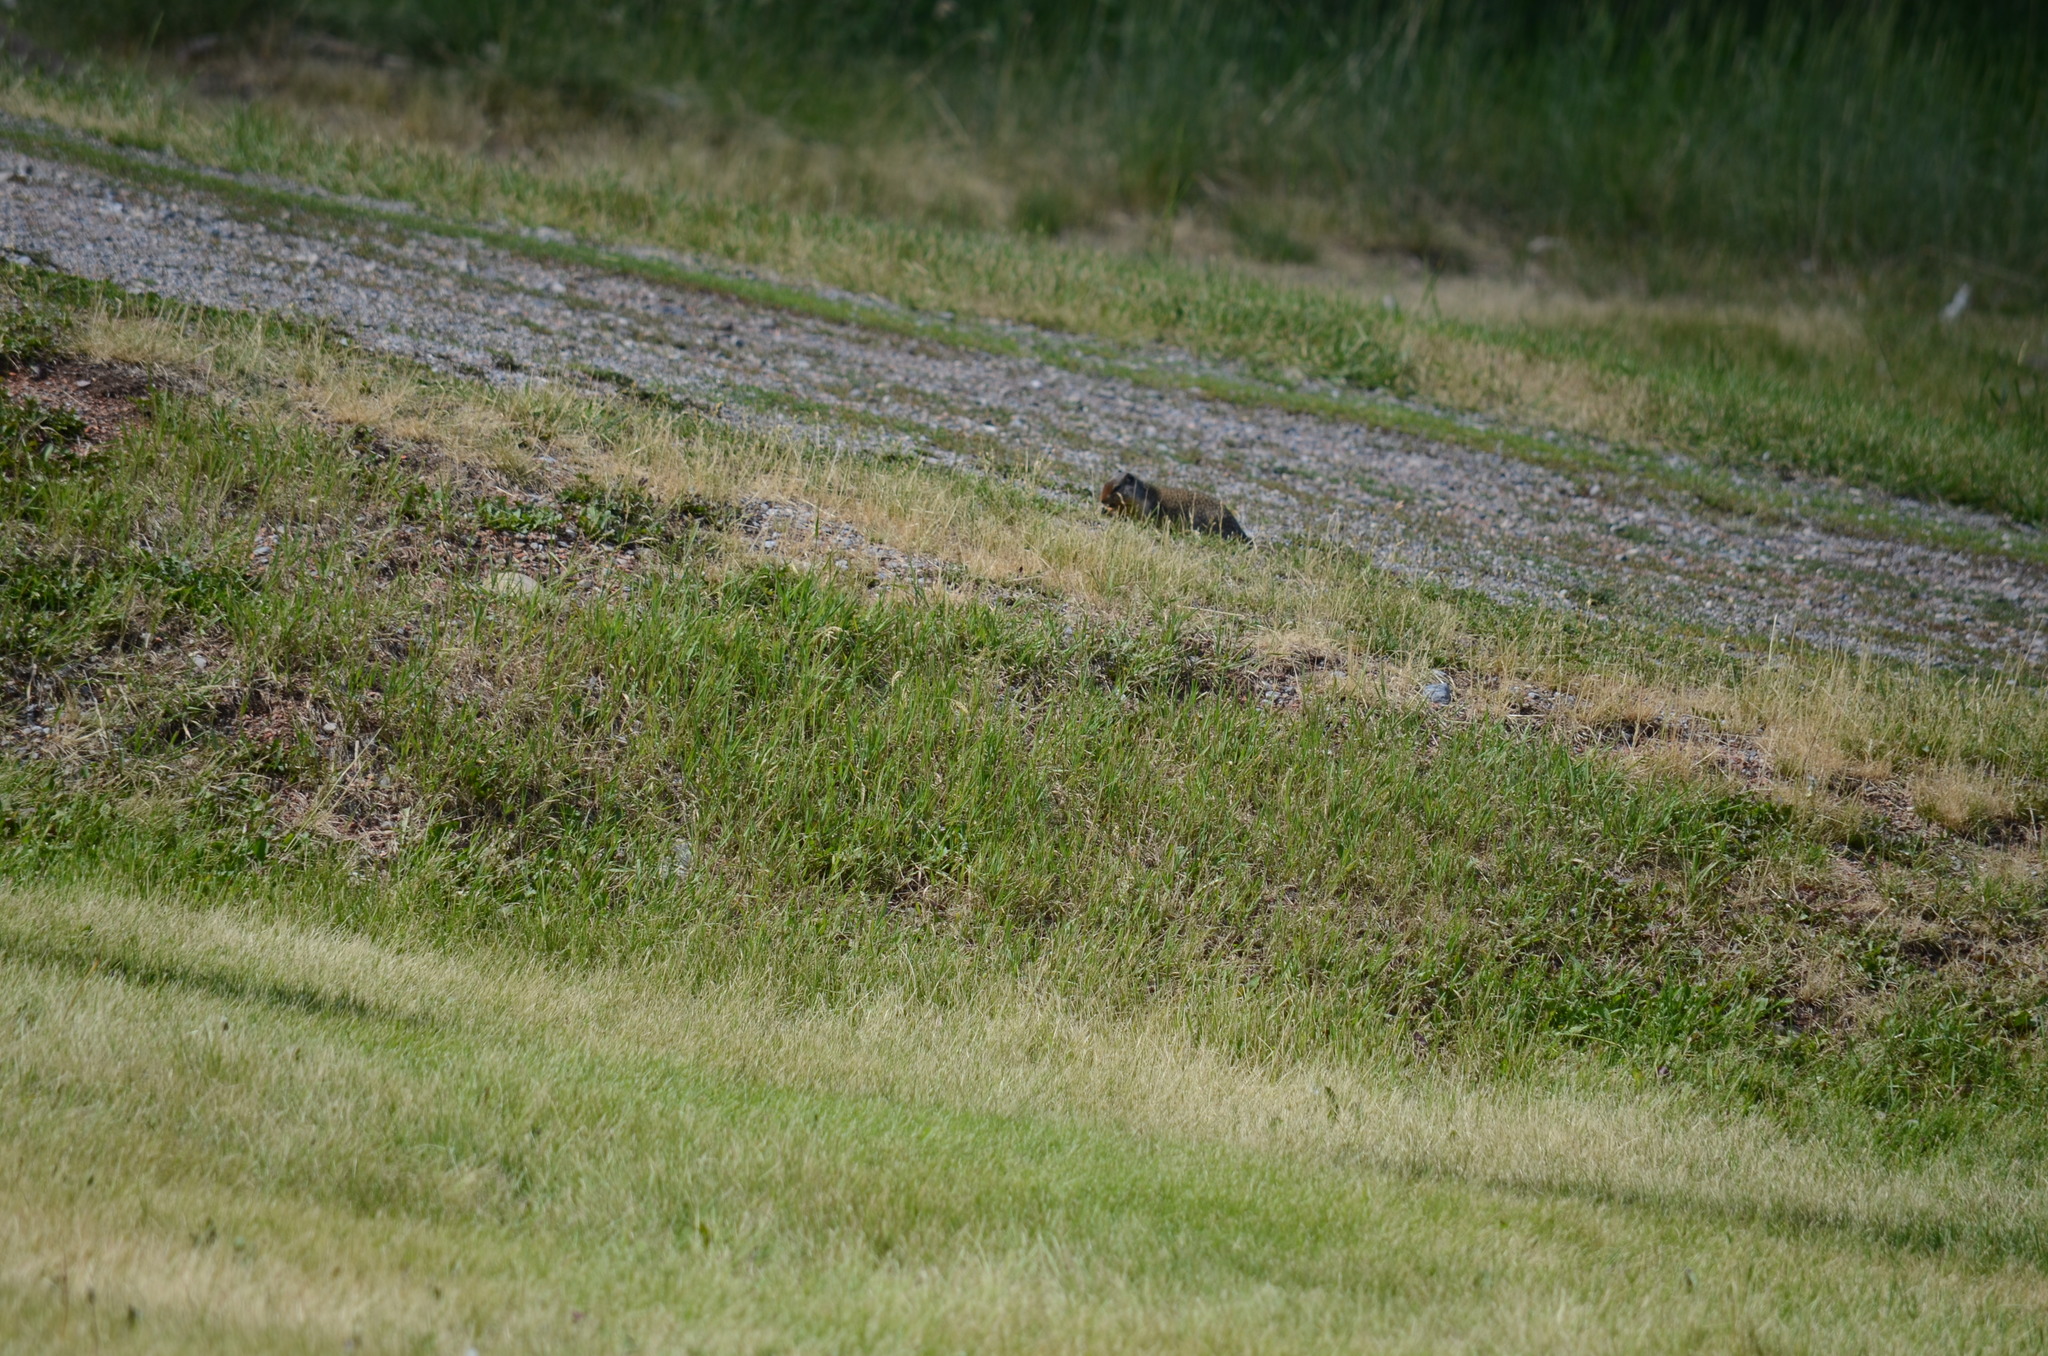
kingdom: Animalia
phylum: Chordata
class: Mammalia
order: Rodentia
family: Sciuridae
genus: Urocitellus
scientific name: Urocitellus columbianus
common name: Columbian ground squirrel
